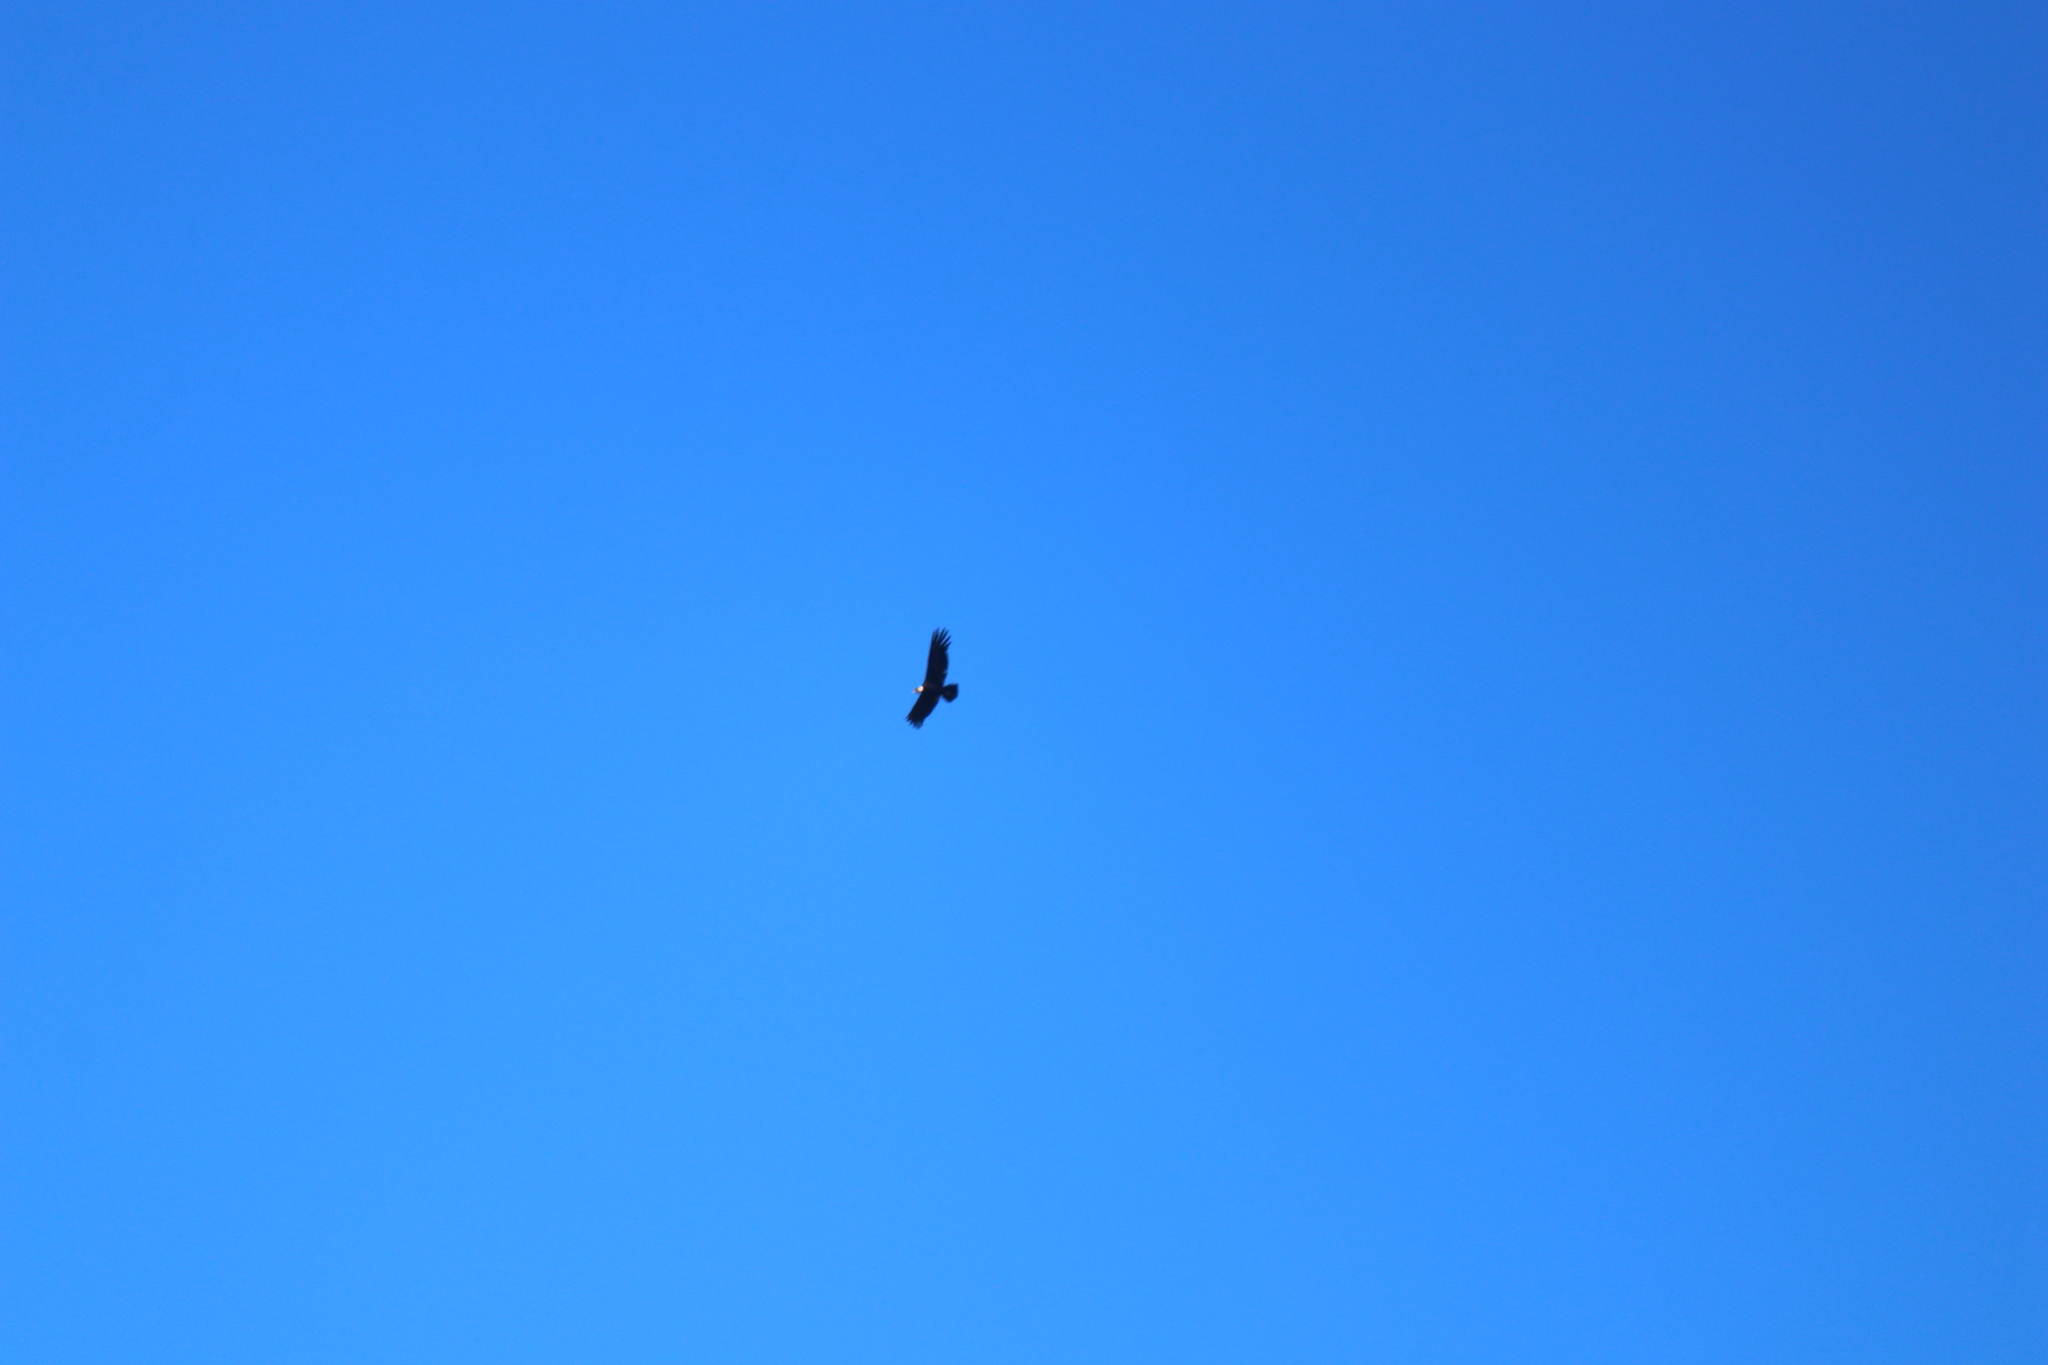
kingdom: Animalia
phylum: Chordata
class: Aves
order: Accipitriformes
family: Cathartidae
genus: Vultur
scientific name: Vultur gryphus
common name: Andean condor
